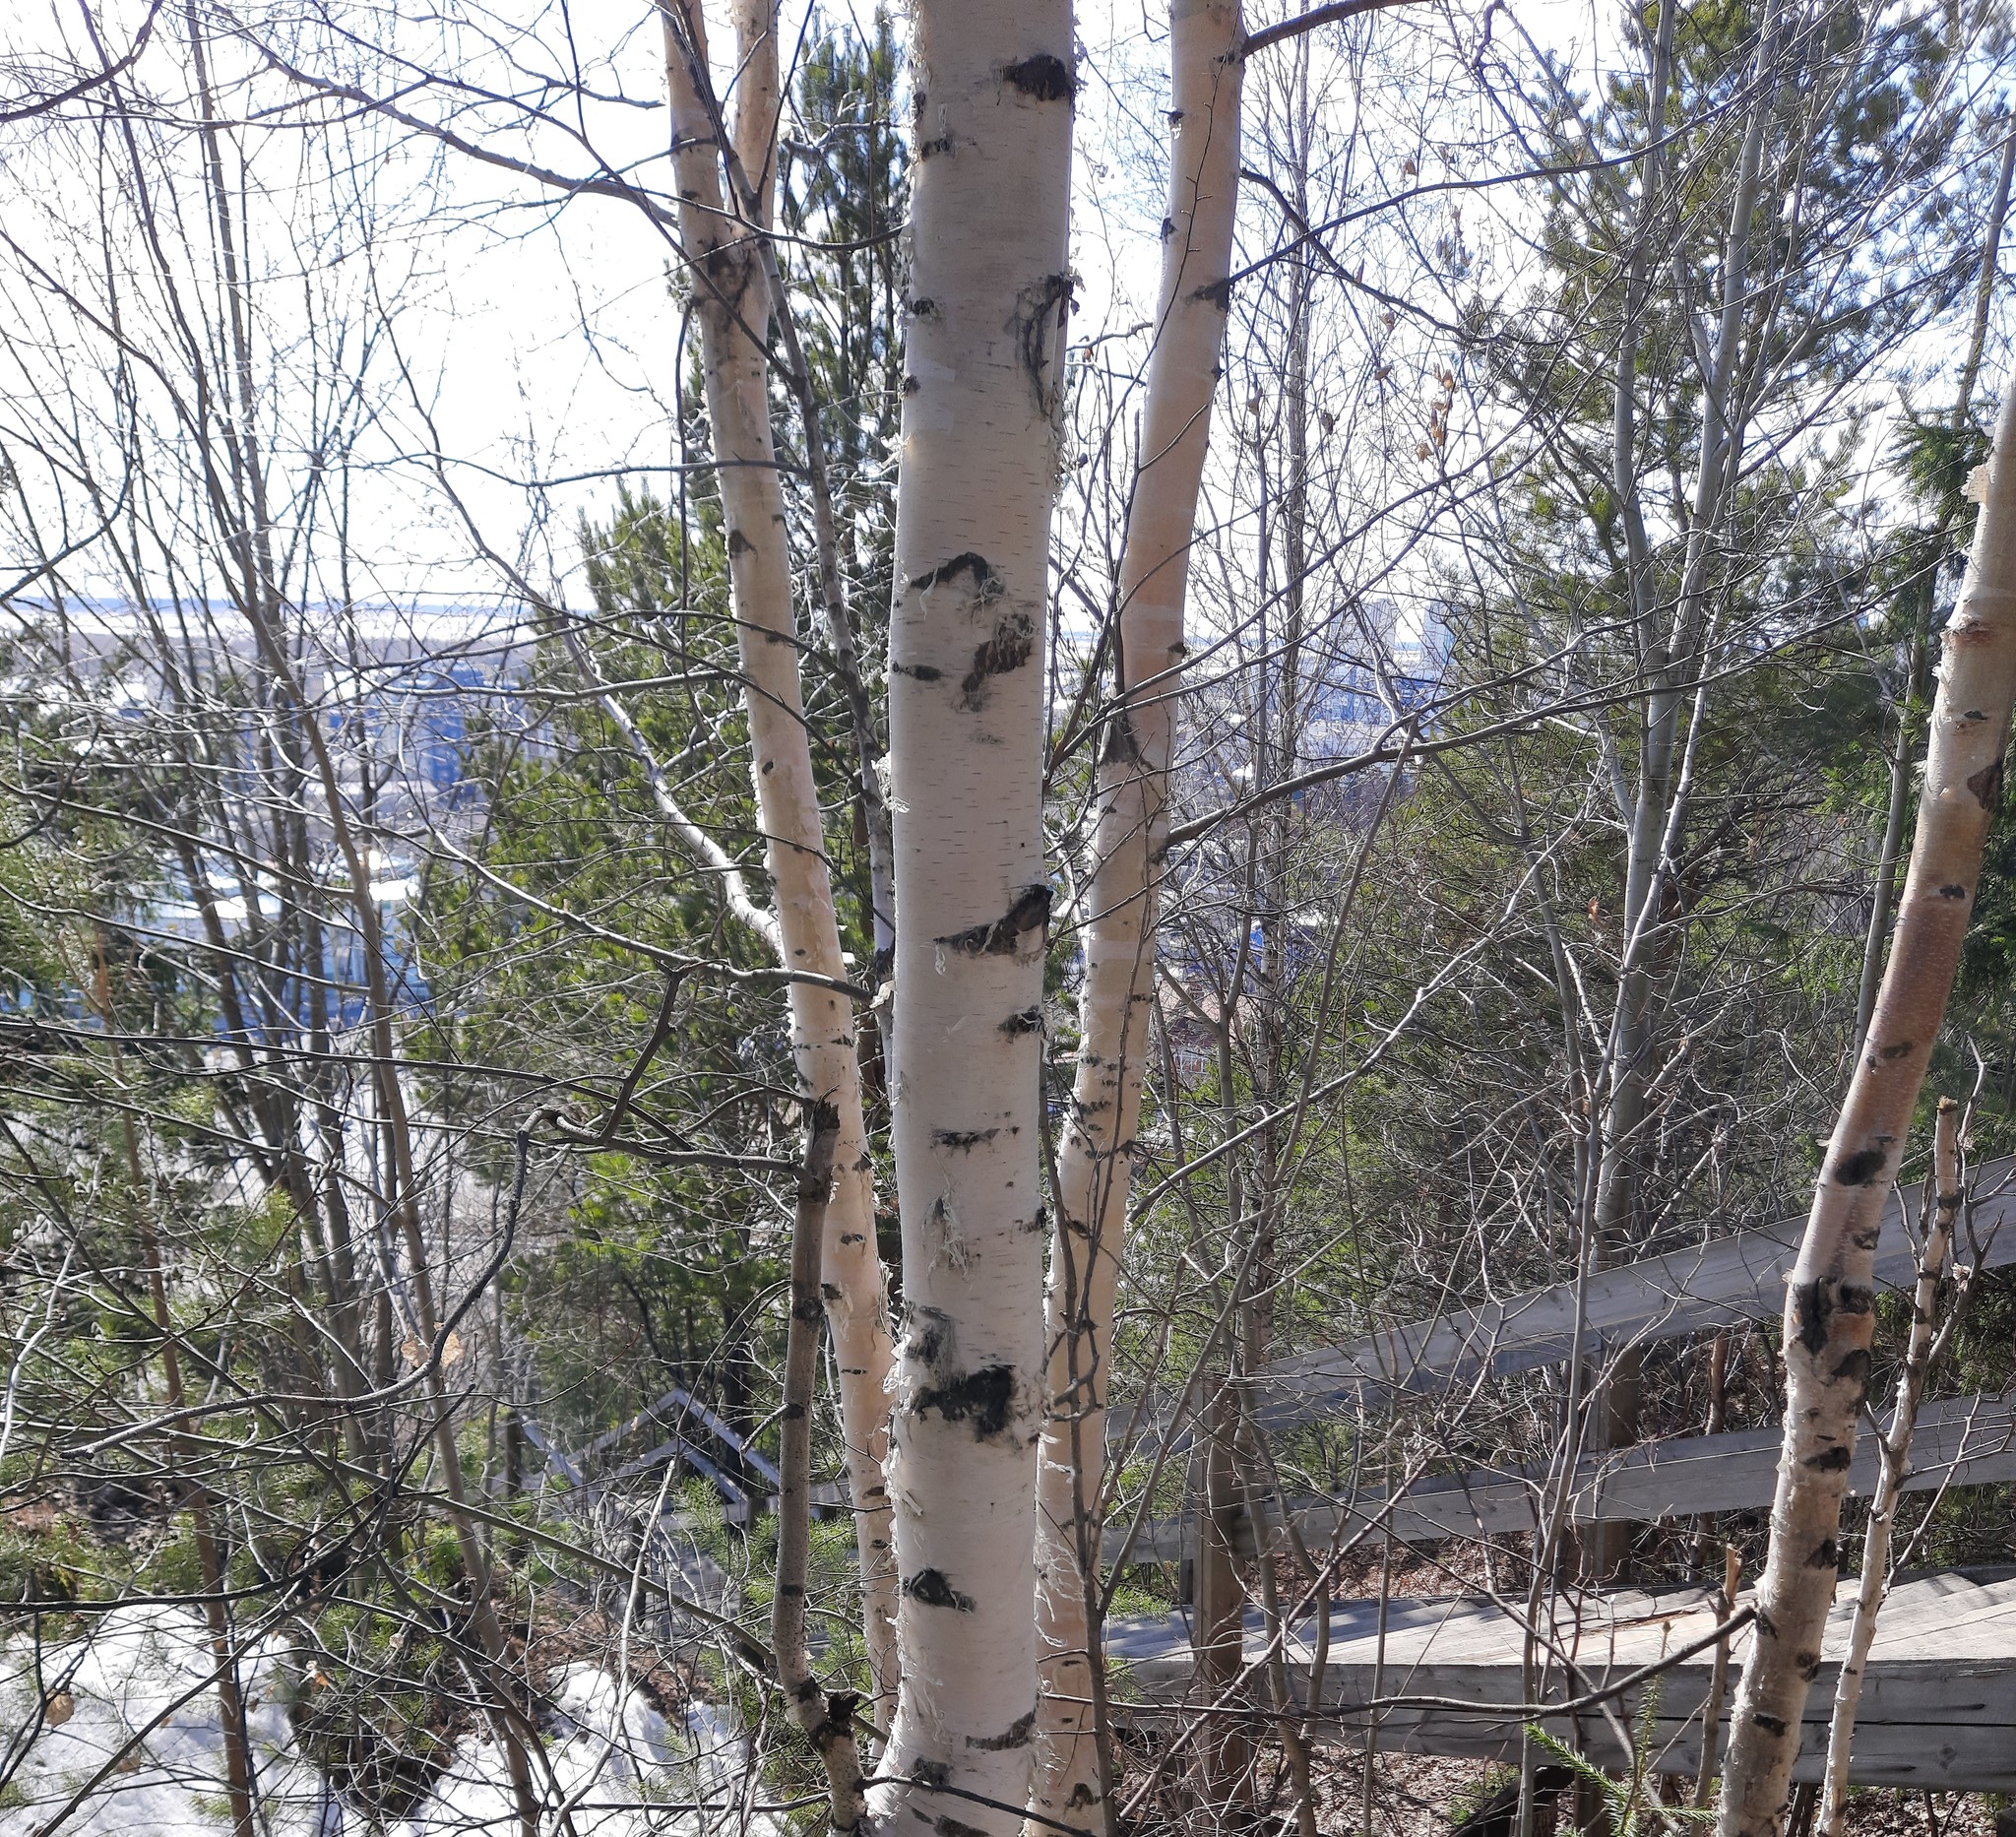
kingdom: Plantae
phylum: Tracheophyta
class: Magnoliopsida
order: Fagales
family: Betulaceae
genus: Betula
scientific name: Betula pubescens
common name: Downy birch
